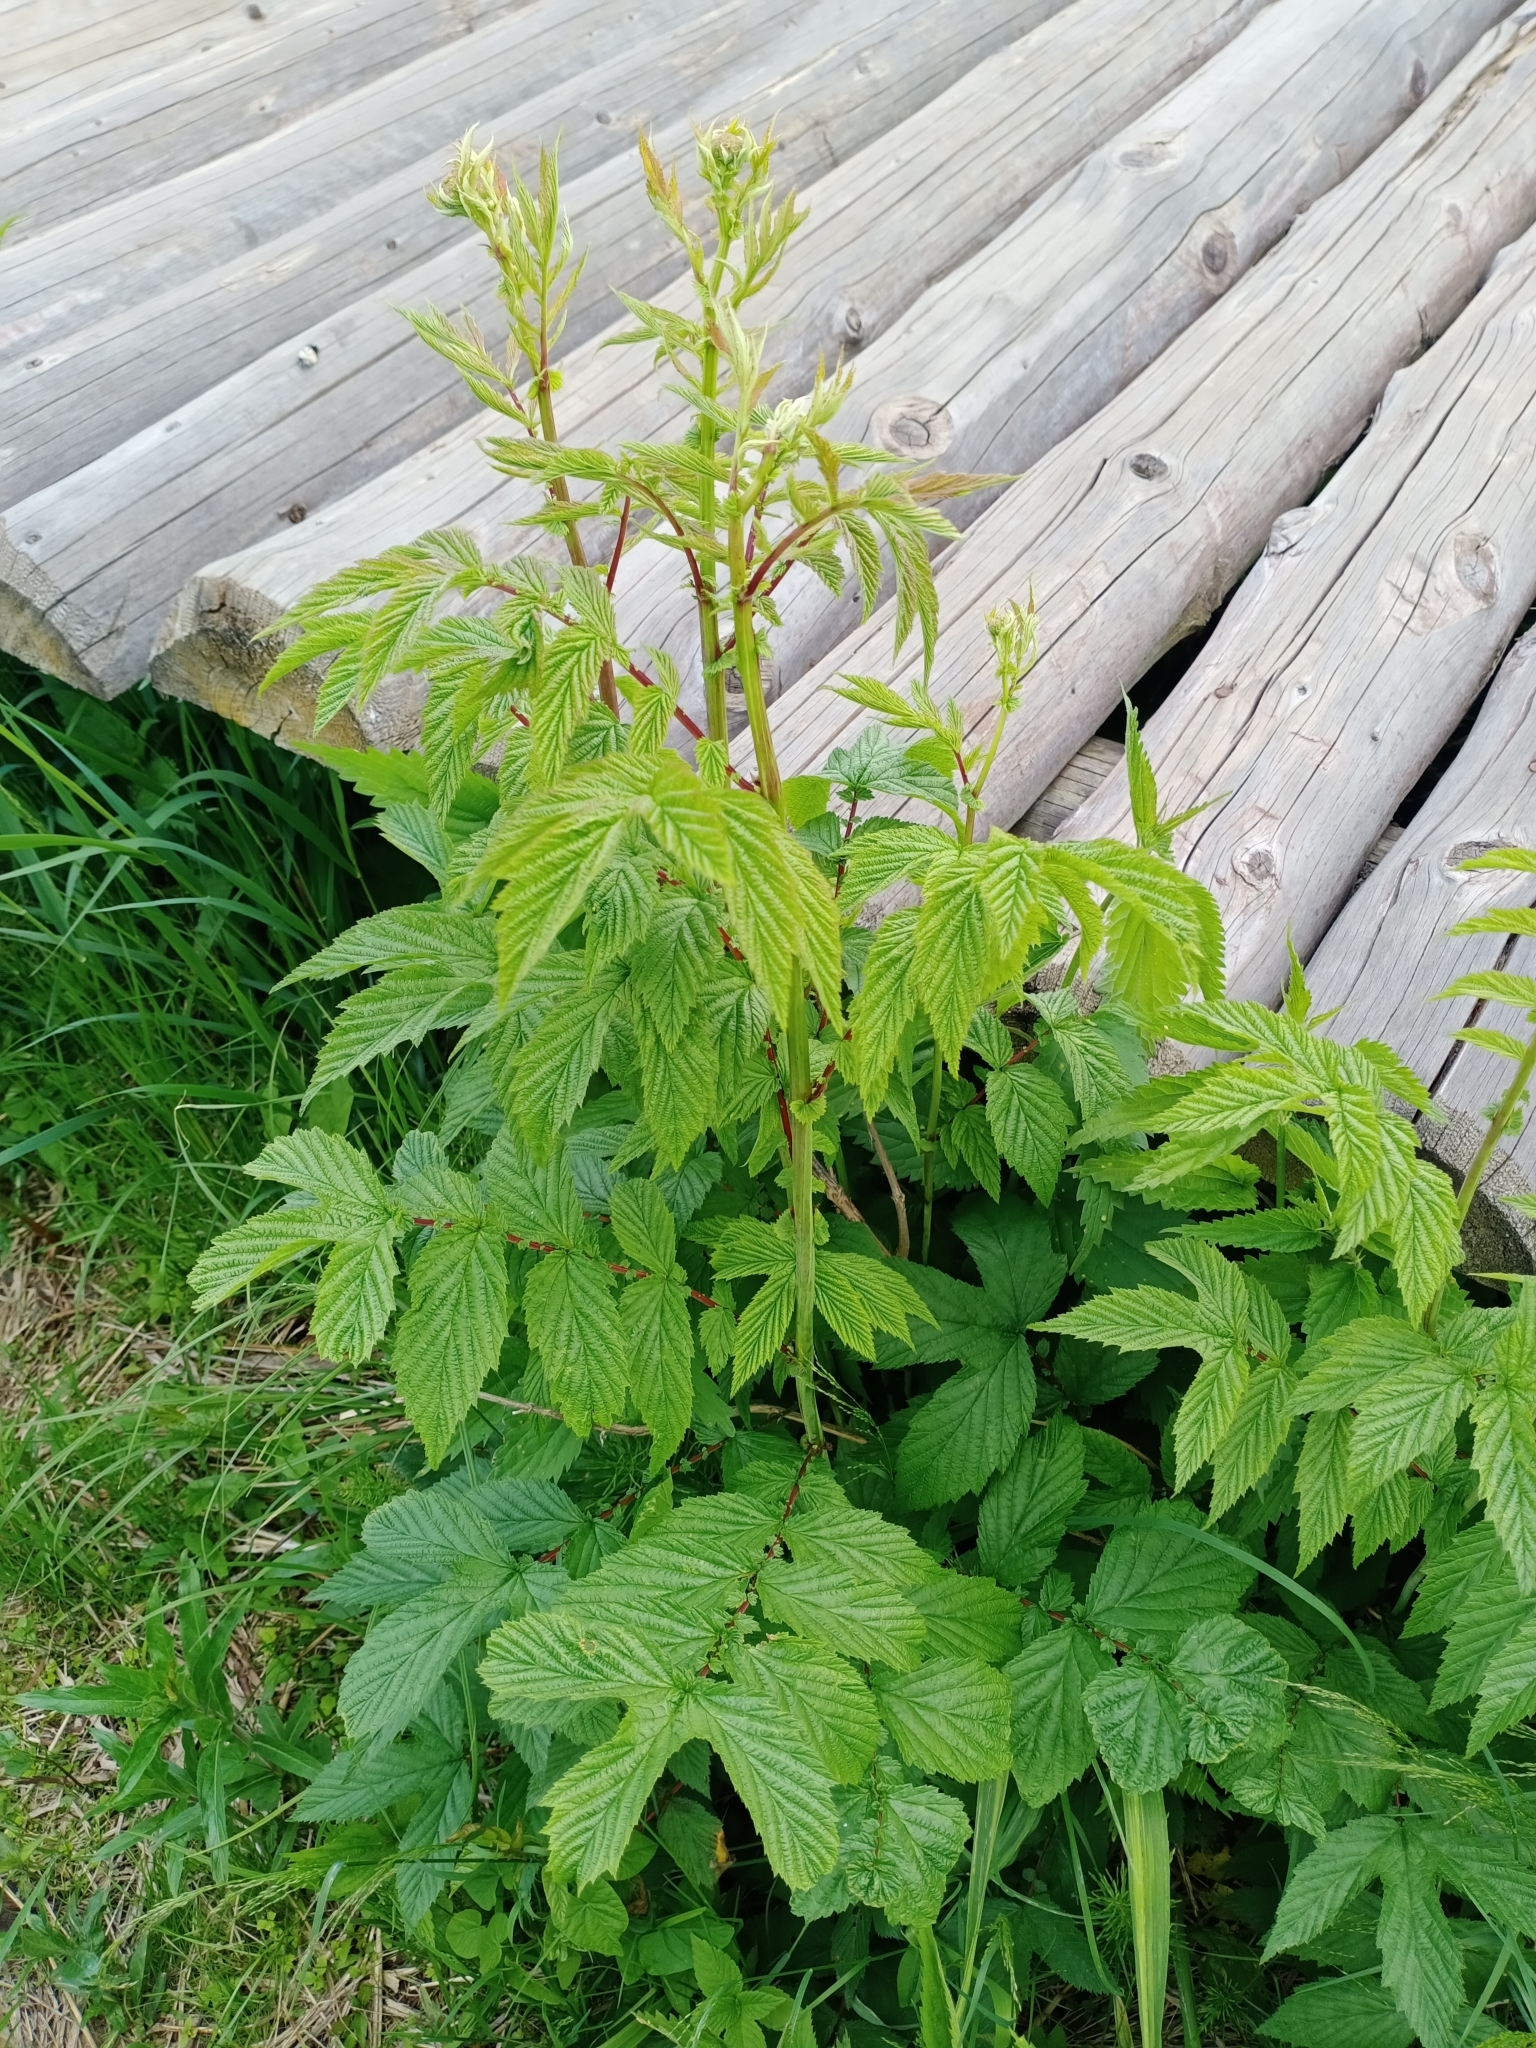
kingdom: Plantae
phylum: Tracheophyta
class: Magnoliopsida
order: Rosales
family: Rosaceae
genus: Filipendula
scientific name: Filipendula ulmaria
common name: Meadowsweet
